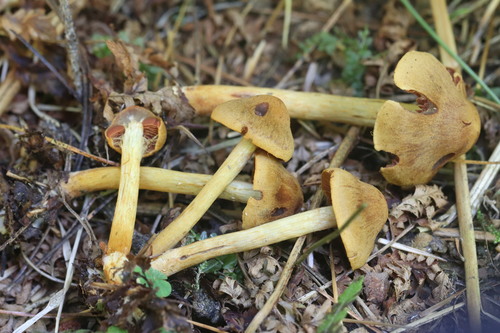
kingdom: Fungi
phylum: Basidiomycota
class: Agaricomycetes
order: Agaricales
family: Cortinariaceae
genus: Cortinarius
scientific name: Cortinarius semisanguineus
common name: Surprise webcap
